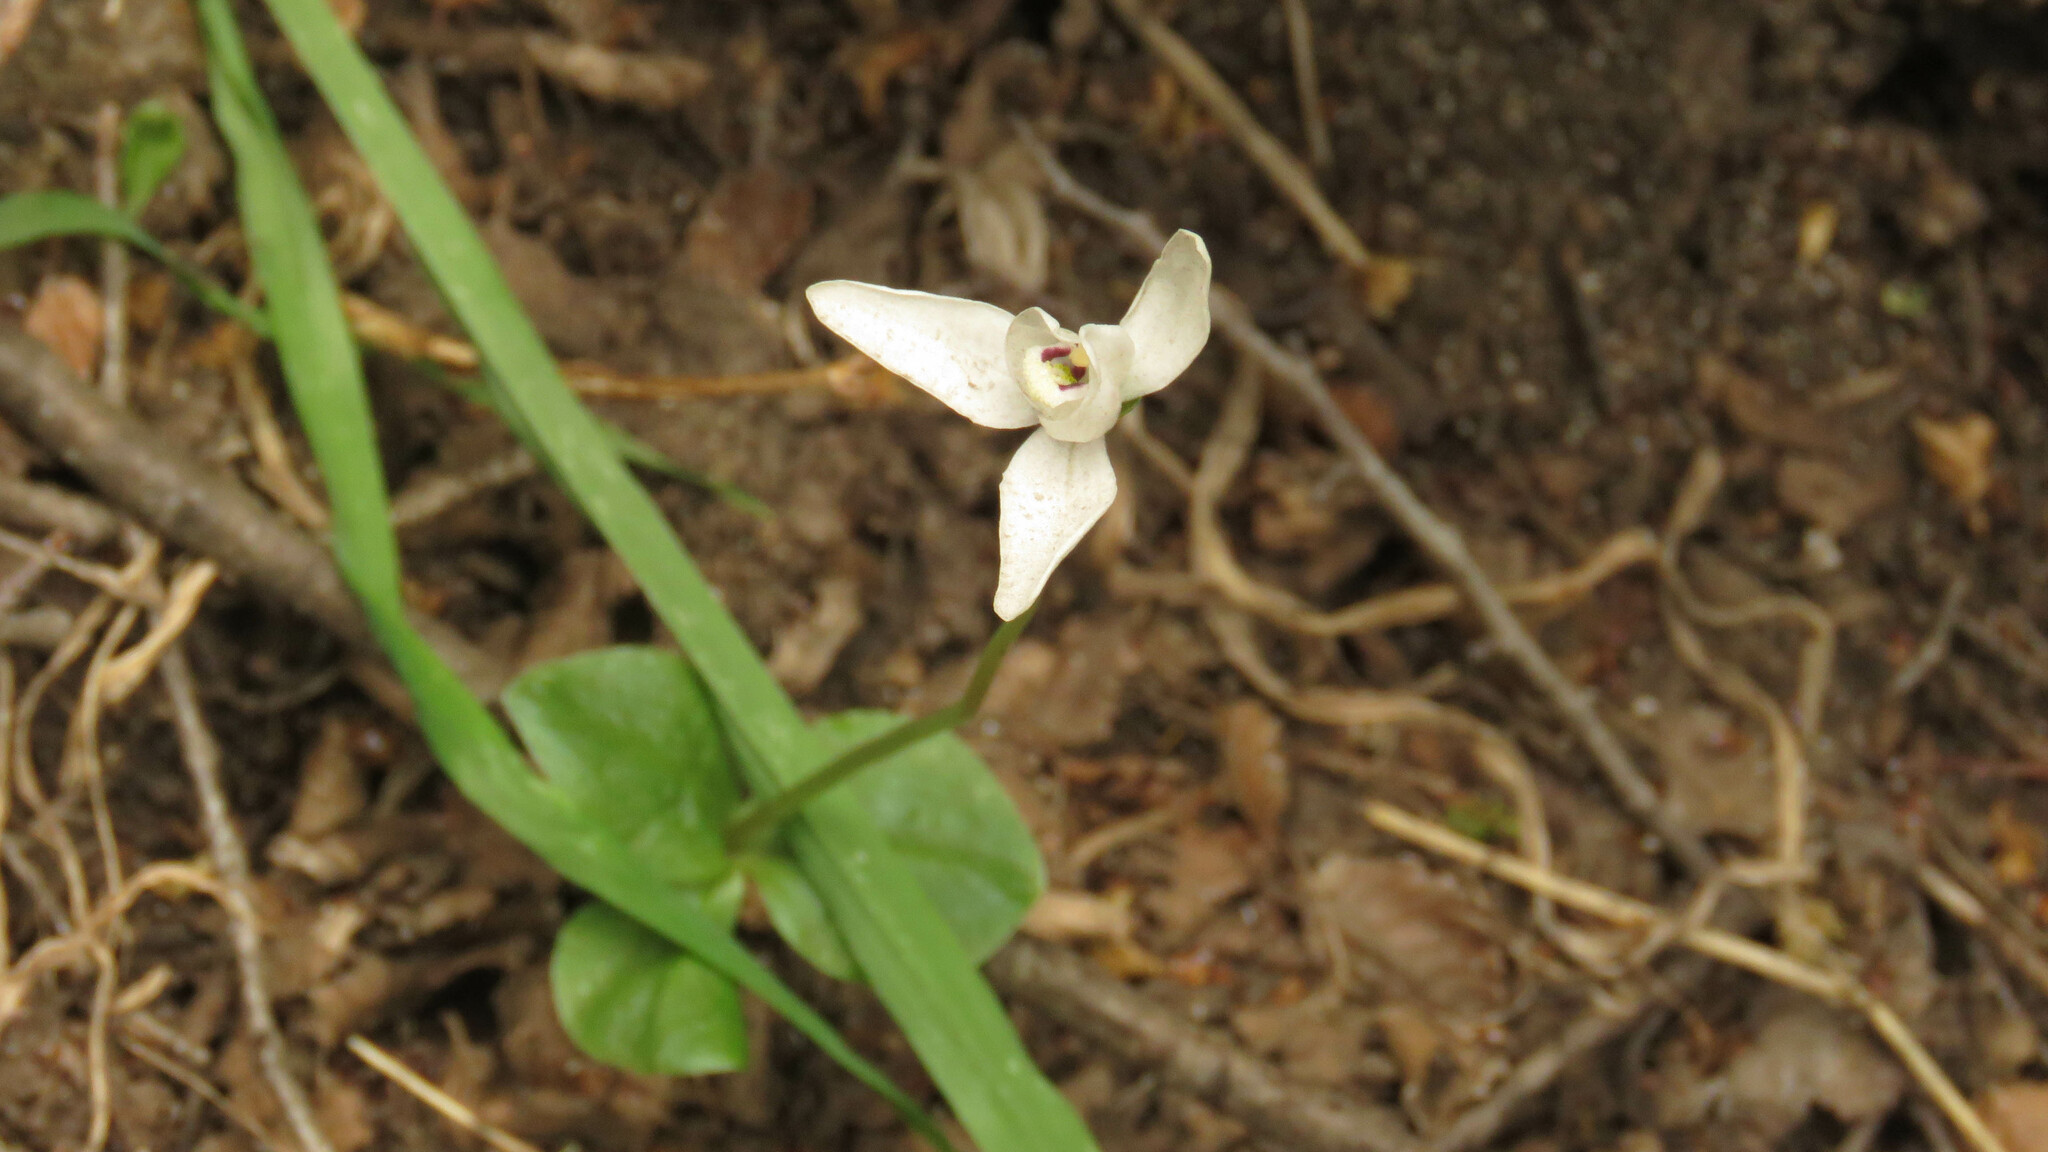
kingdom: Plantae
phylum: Tracheophyta
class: Liliopsida
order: Asparagales
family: Orchidaceae
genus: Codonorchis
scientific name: Codonorchis lessonii
